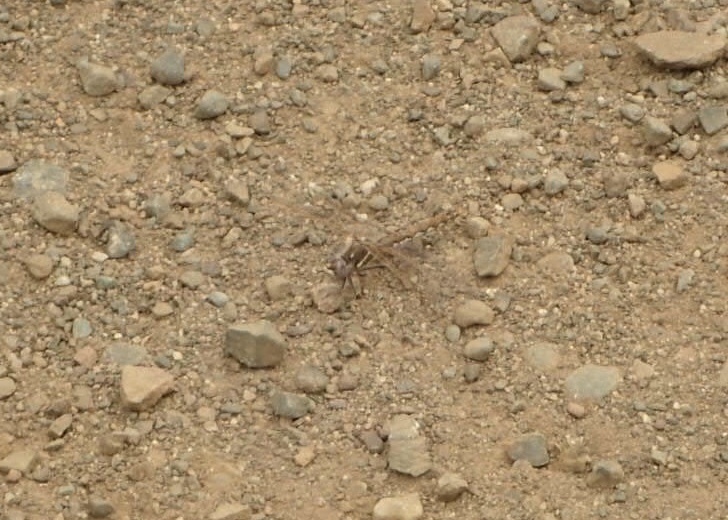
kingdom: Animalia
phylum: Arthropoda
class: Insecta
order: Odonata
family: Libellulidae
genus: Sympetrum
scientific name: Sympetrum corruptum
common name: Variegated meadowhawk
